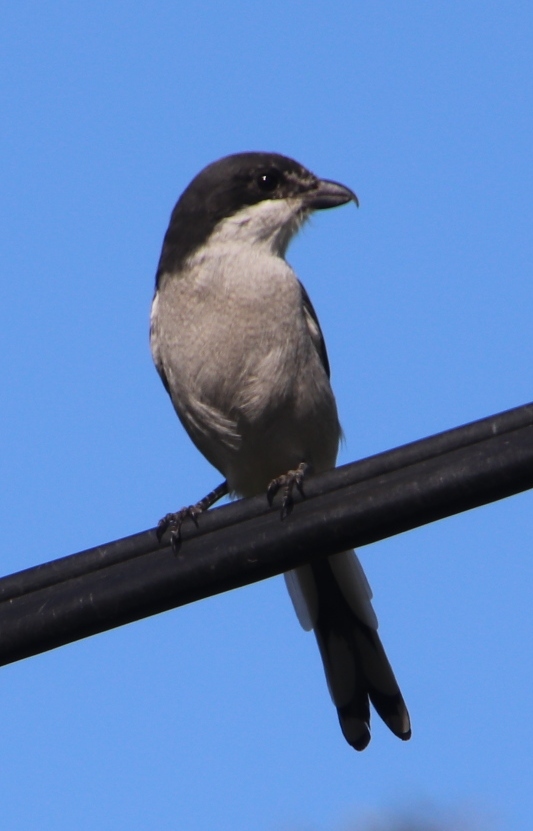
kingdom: Animalia
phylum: Chordata
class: Aves
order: Passeriformes
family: Laniidae
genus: Lanius
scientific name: Lanius collaris
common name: Southern fiscal
